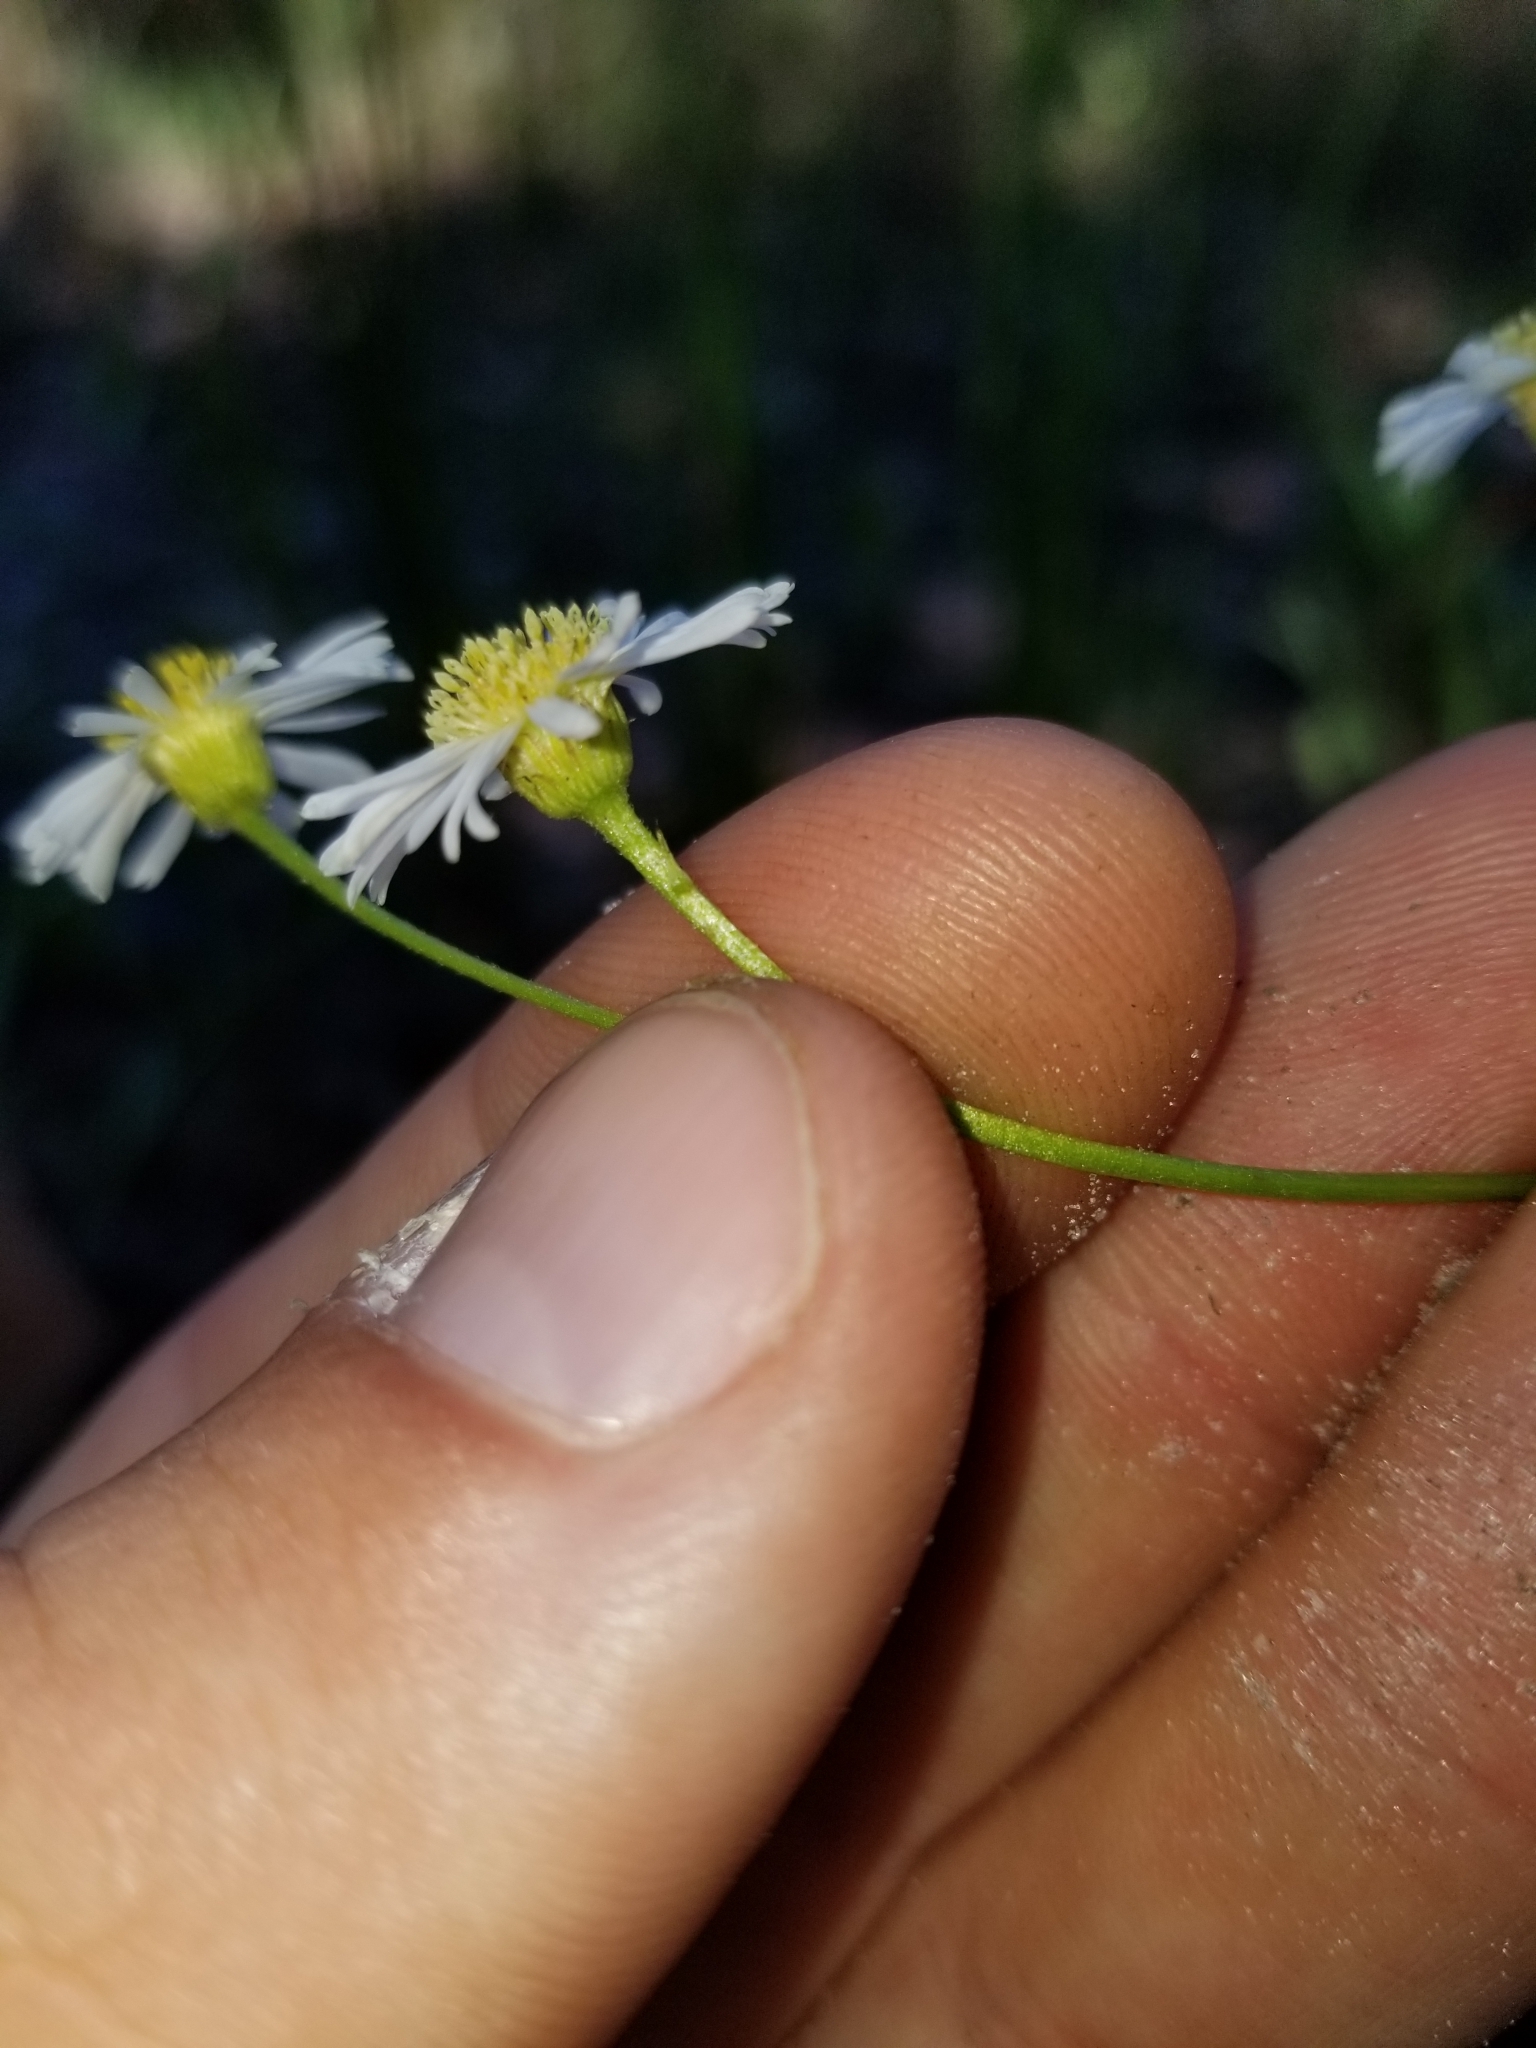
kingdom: Plantae
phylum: Tracheophyta
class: Magnoliopsida
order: Asterales
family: Asteraceae
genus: Erigeron
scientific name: Erigeron vernus
